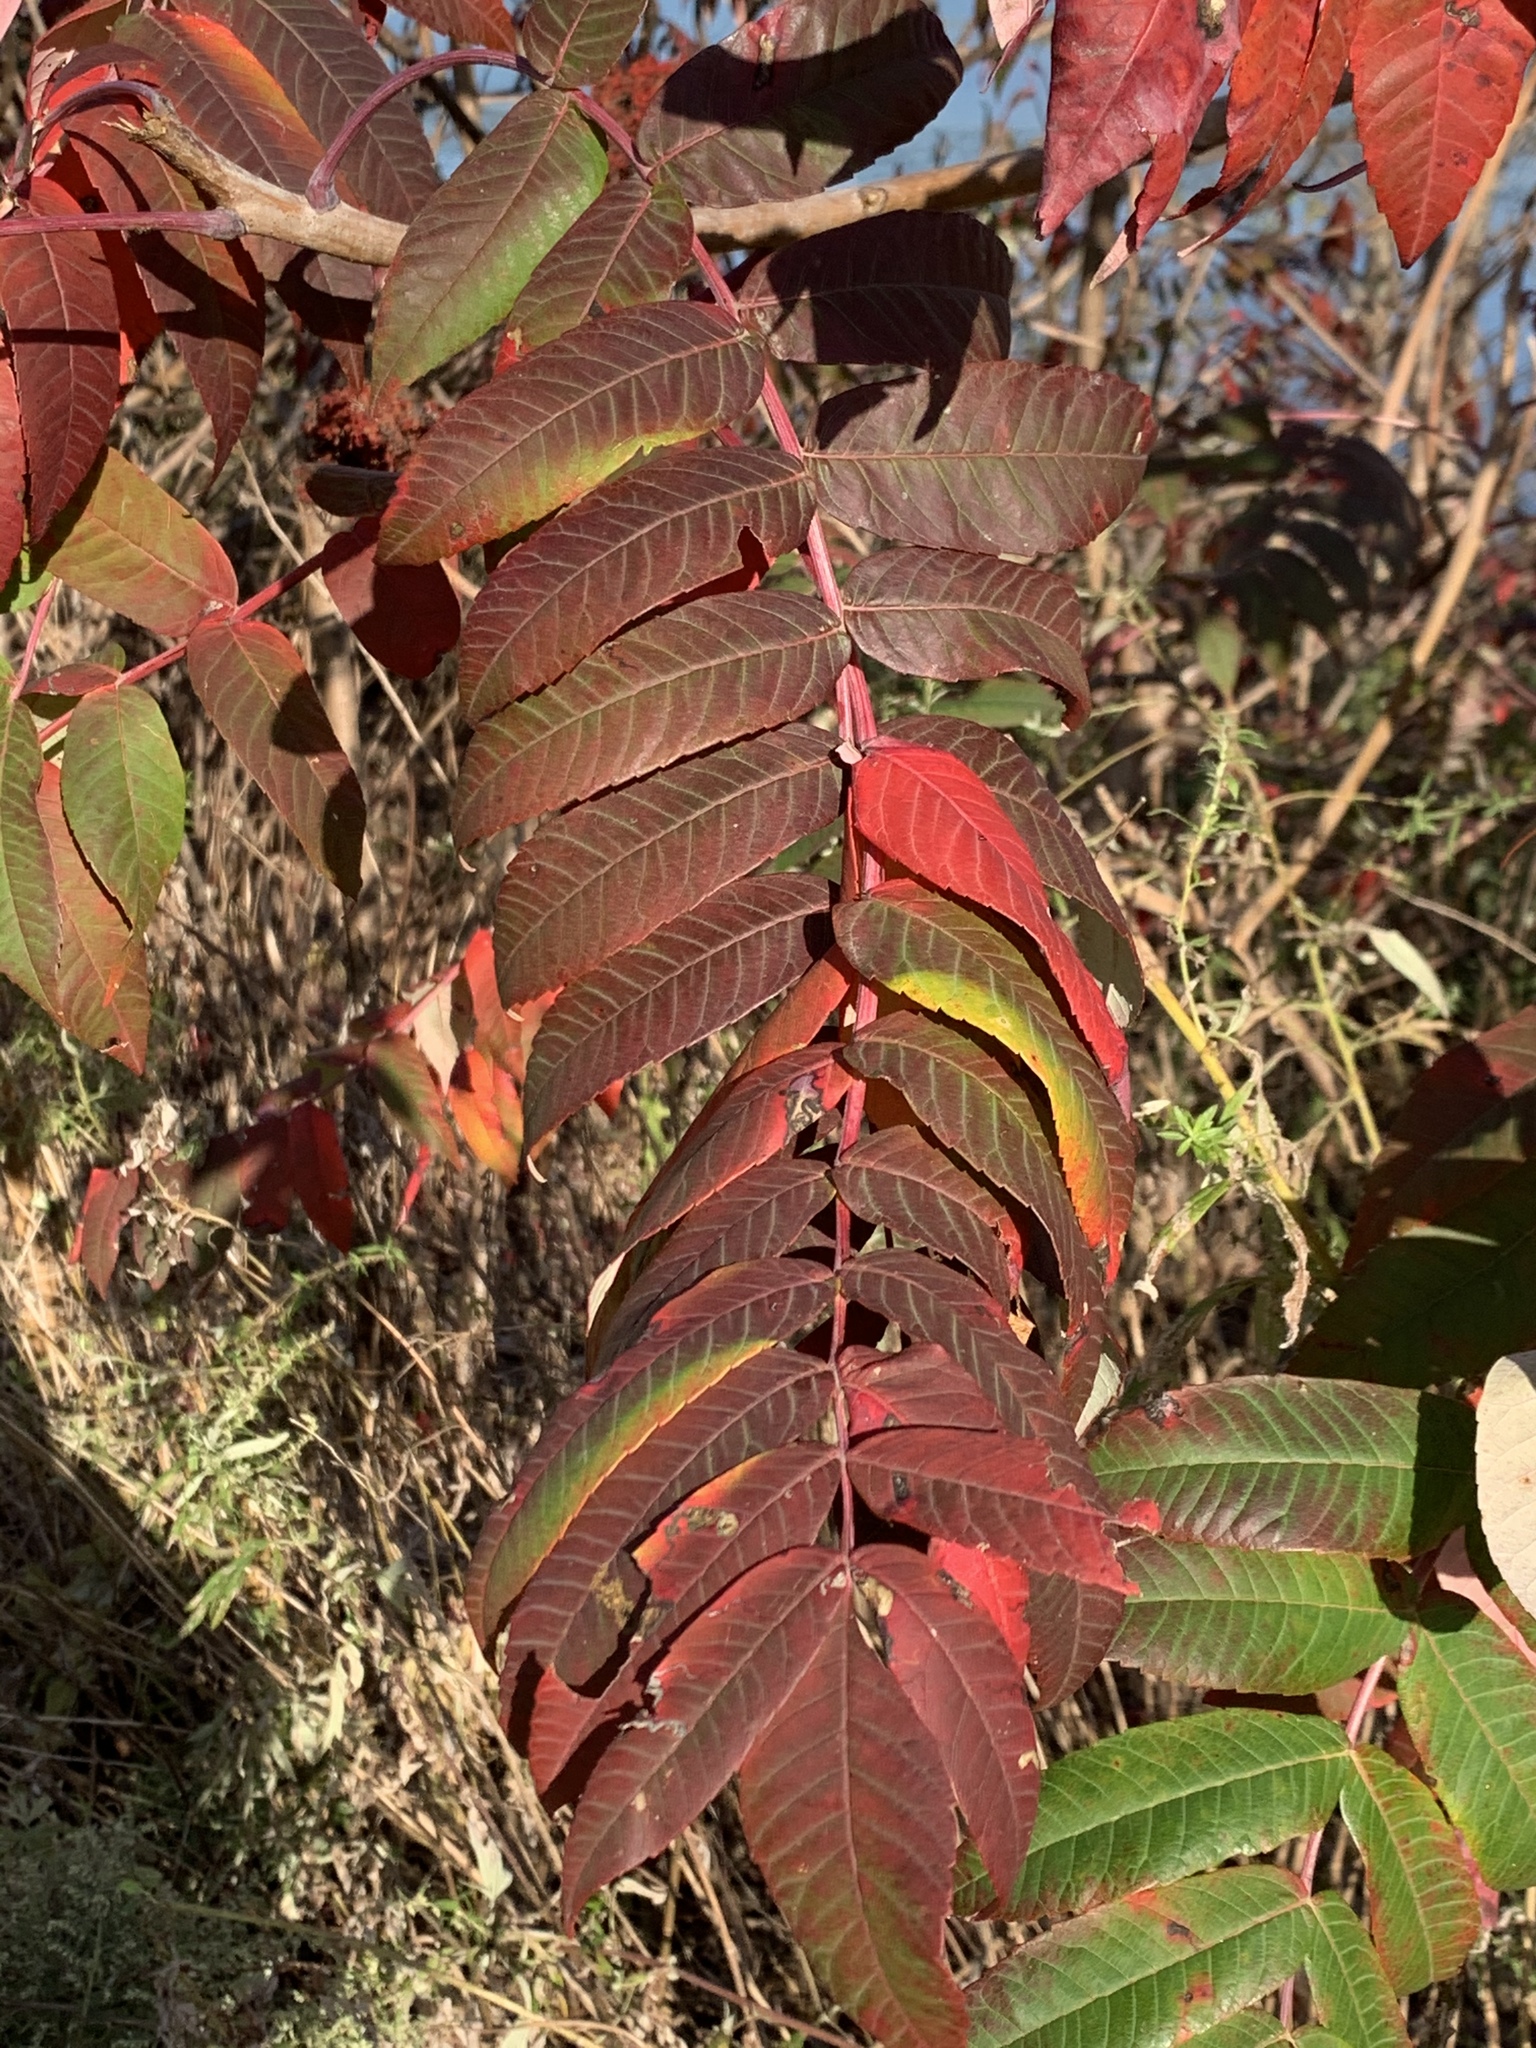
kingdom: Plantae
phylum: Tracheophyta
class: Magnoliopsida
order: Sapindales
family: Anacardiaceae
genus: Rhus
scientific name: Rhus glabra
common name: Scarlet sumac
